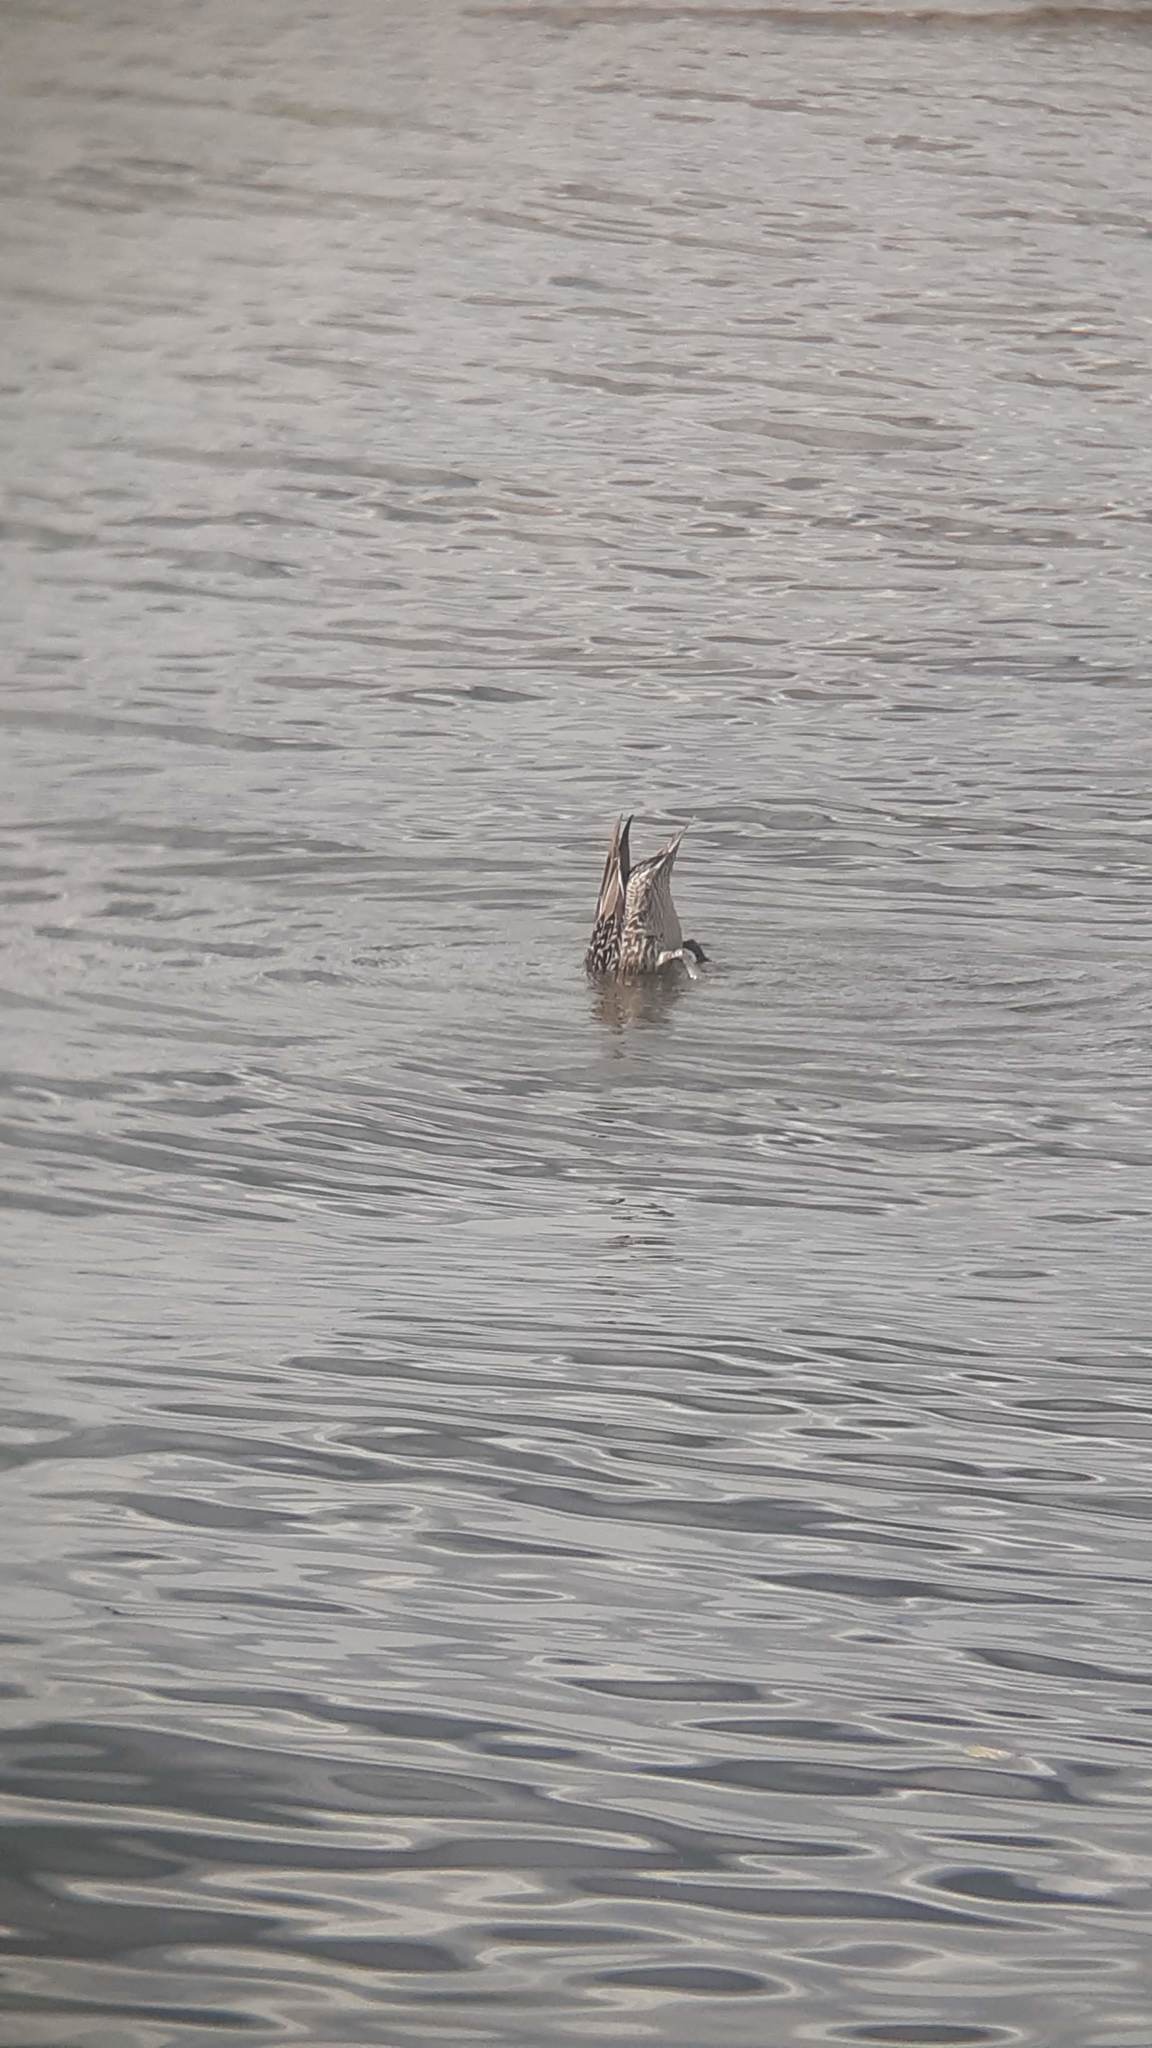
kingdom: Animalia
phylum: Chordata
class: Aves
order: Anseriformes
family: Anatidae
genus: Anas
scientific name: Anas acuta
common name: Northern pintail
